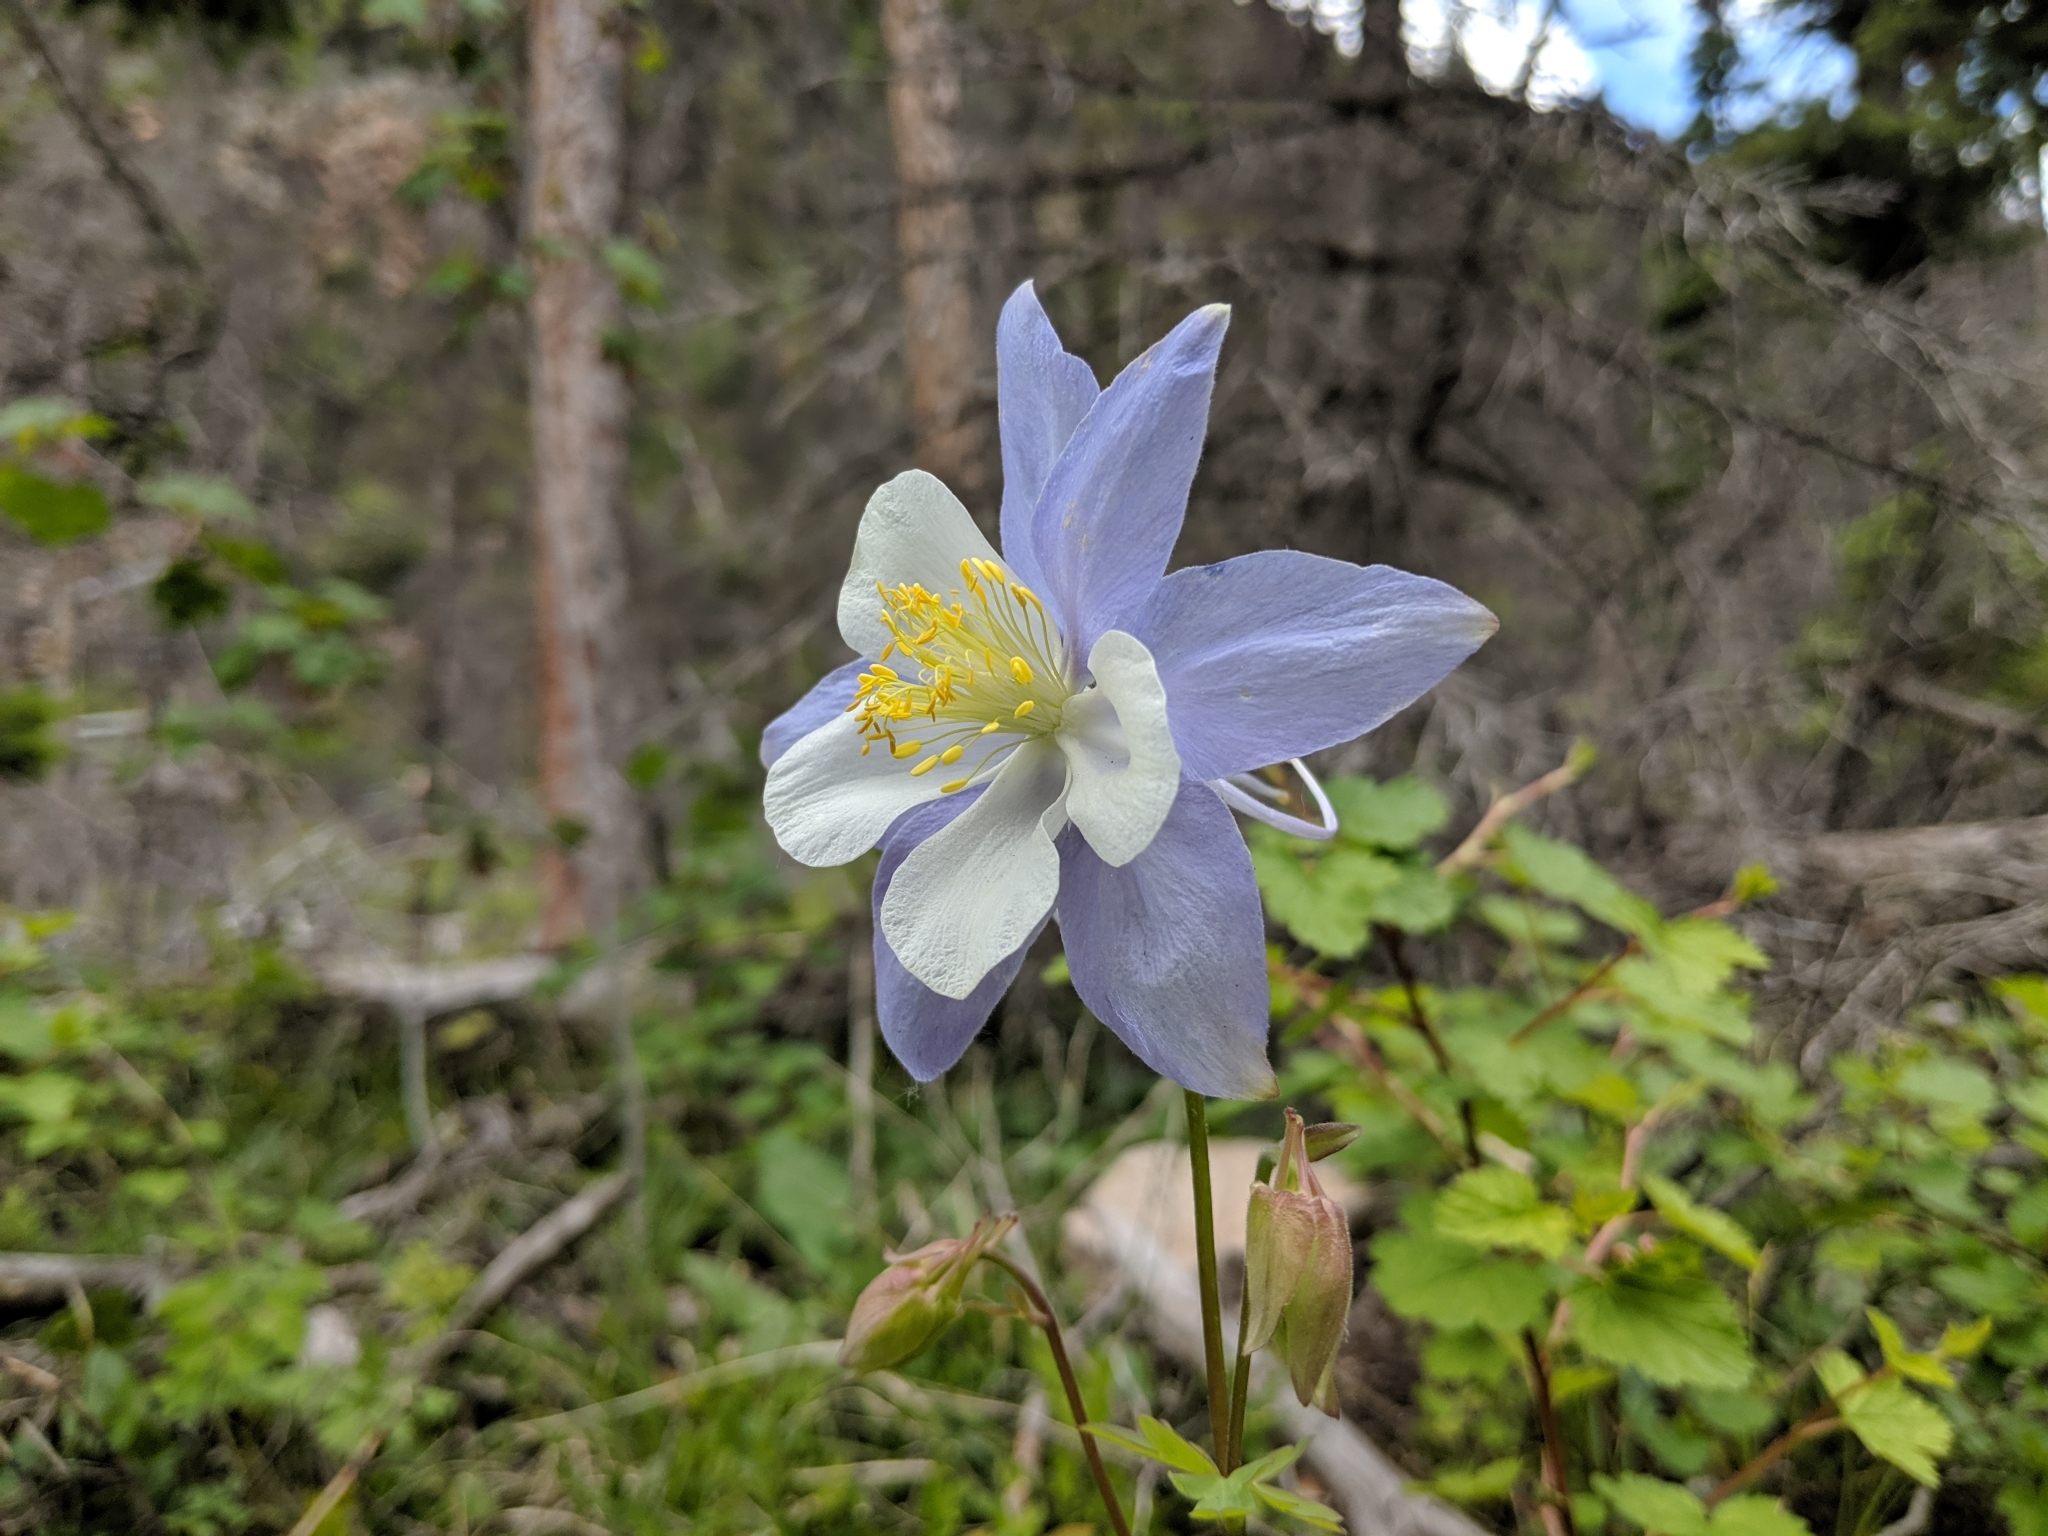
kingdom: Plantae
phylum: Tracheophyta
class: Magnoliopsida
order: Ranunculales
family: Ranunculaceae
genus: Aquilegia
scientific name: Aquilegia coerulea
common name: Rocky mountain columbine
